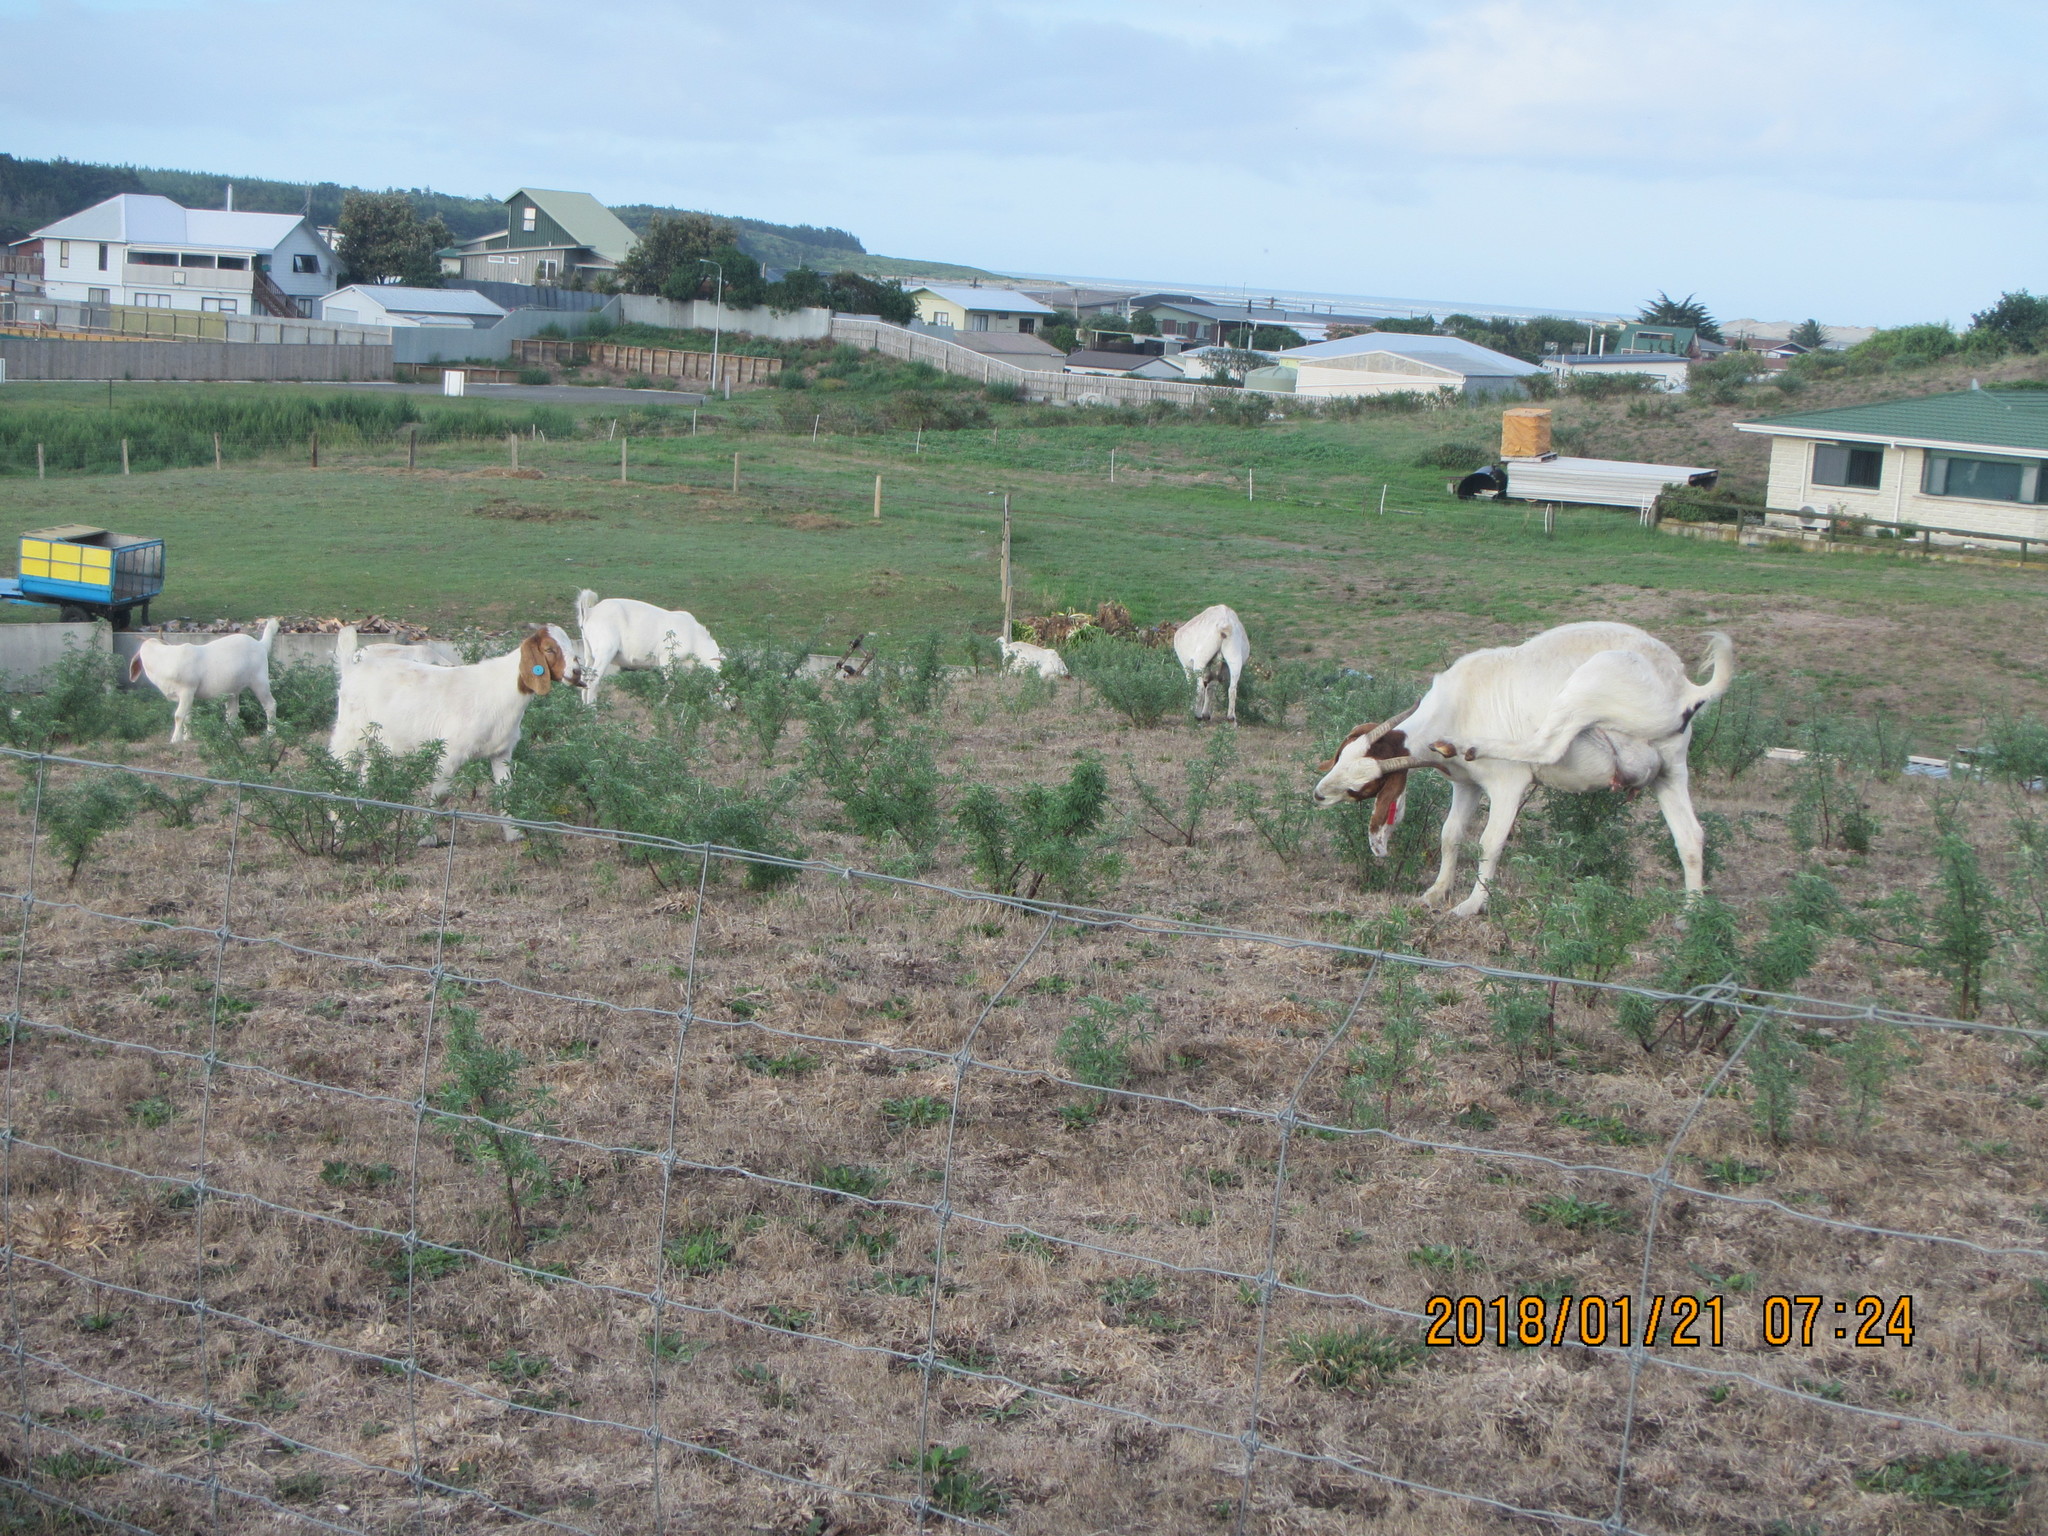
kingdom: Plantae
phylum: Tracheophyta
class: Magnoliopsida
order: Fabales
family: Fabaceae
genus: Lupinus
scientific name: Lupinus arboreus
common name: Yellow bush lupine
